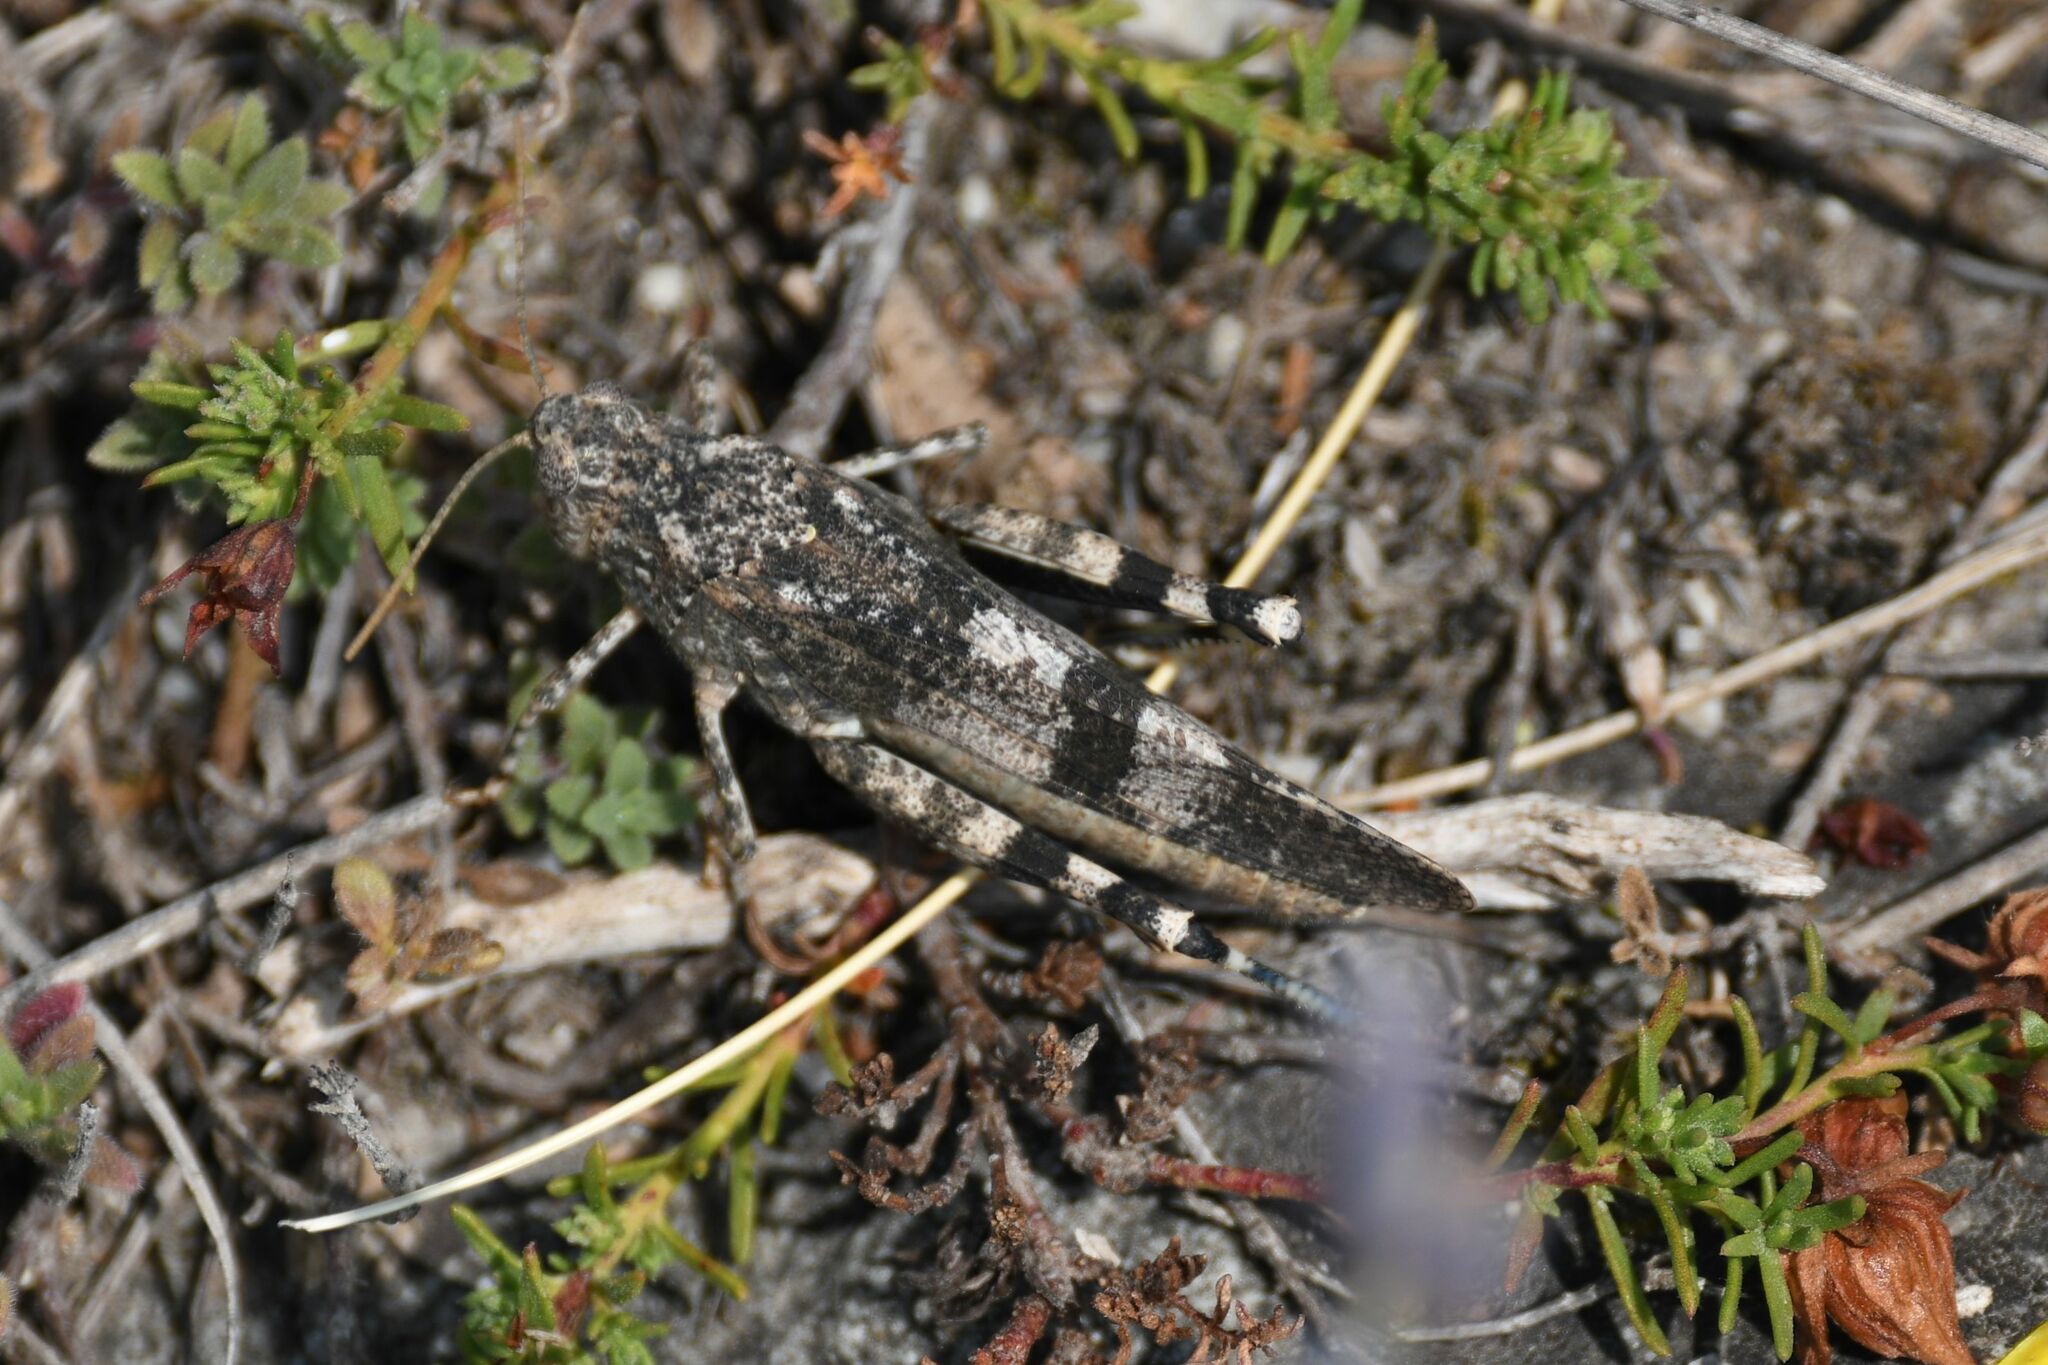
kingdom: Animalia
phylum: Arthropoda
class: Insecta
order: Orthoptera
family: Acrididae
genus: Oedipoda
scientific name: Oedipoda germanica
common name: Red band-winged grasshopper
